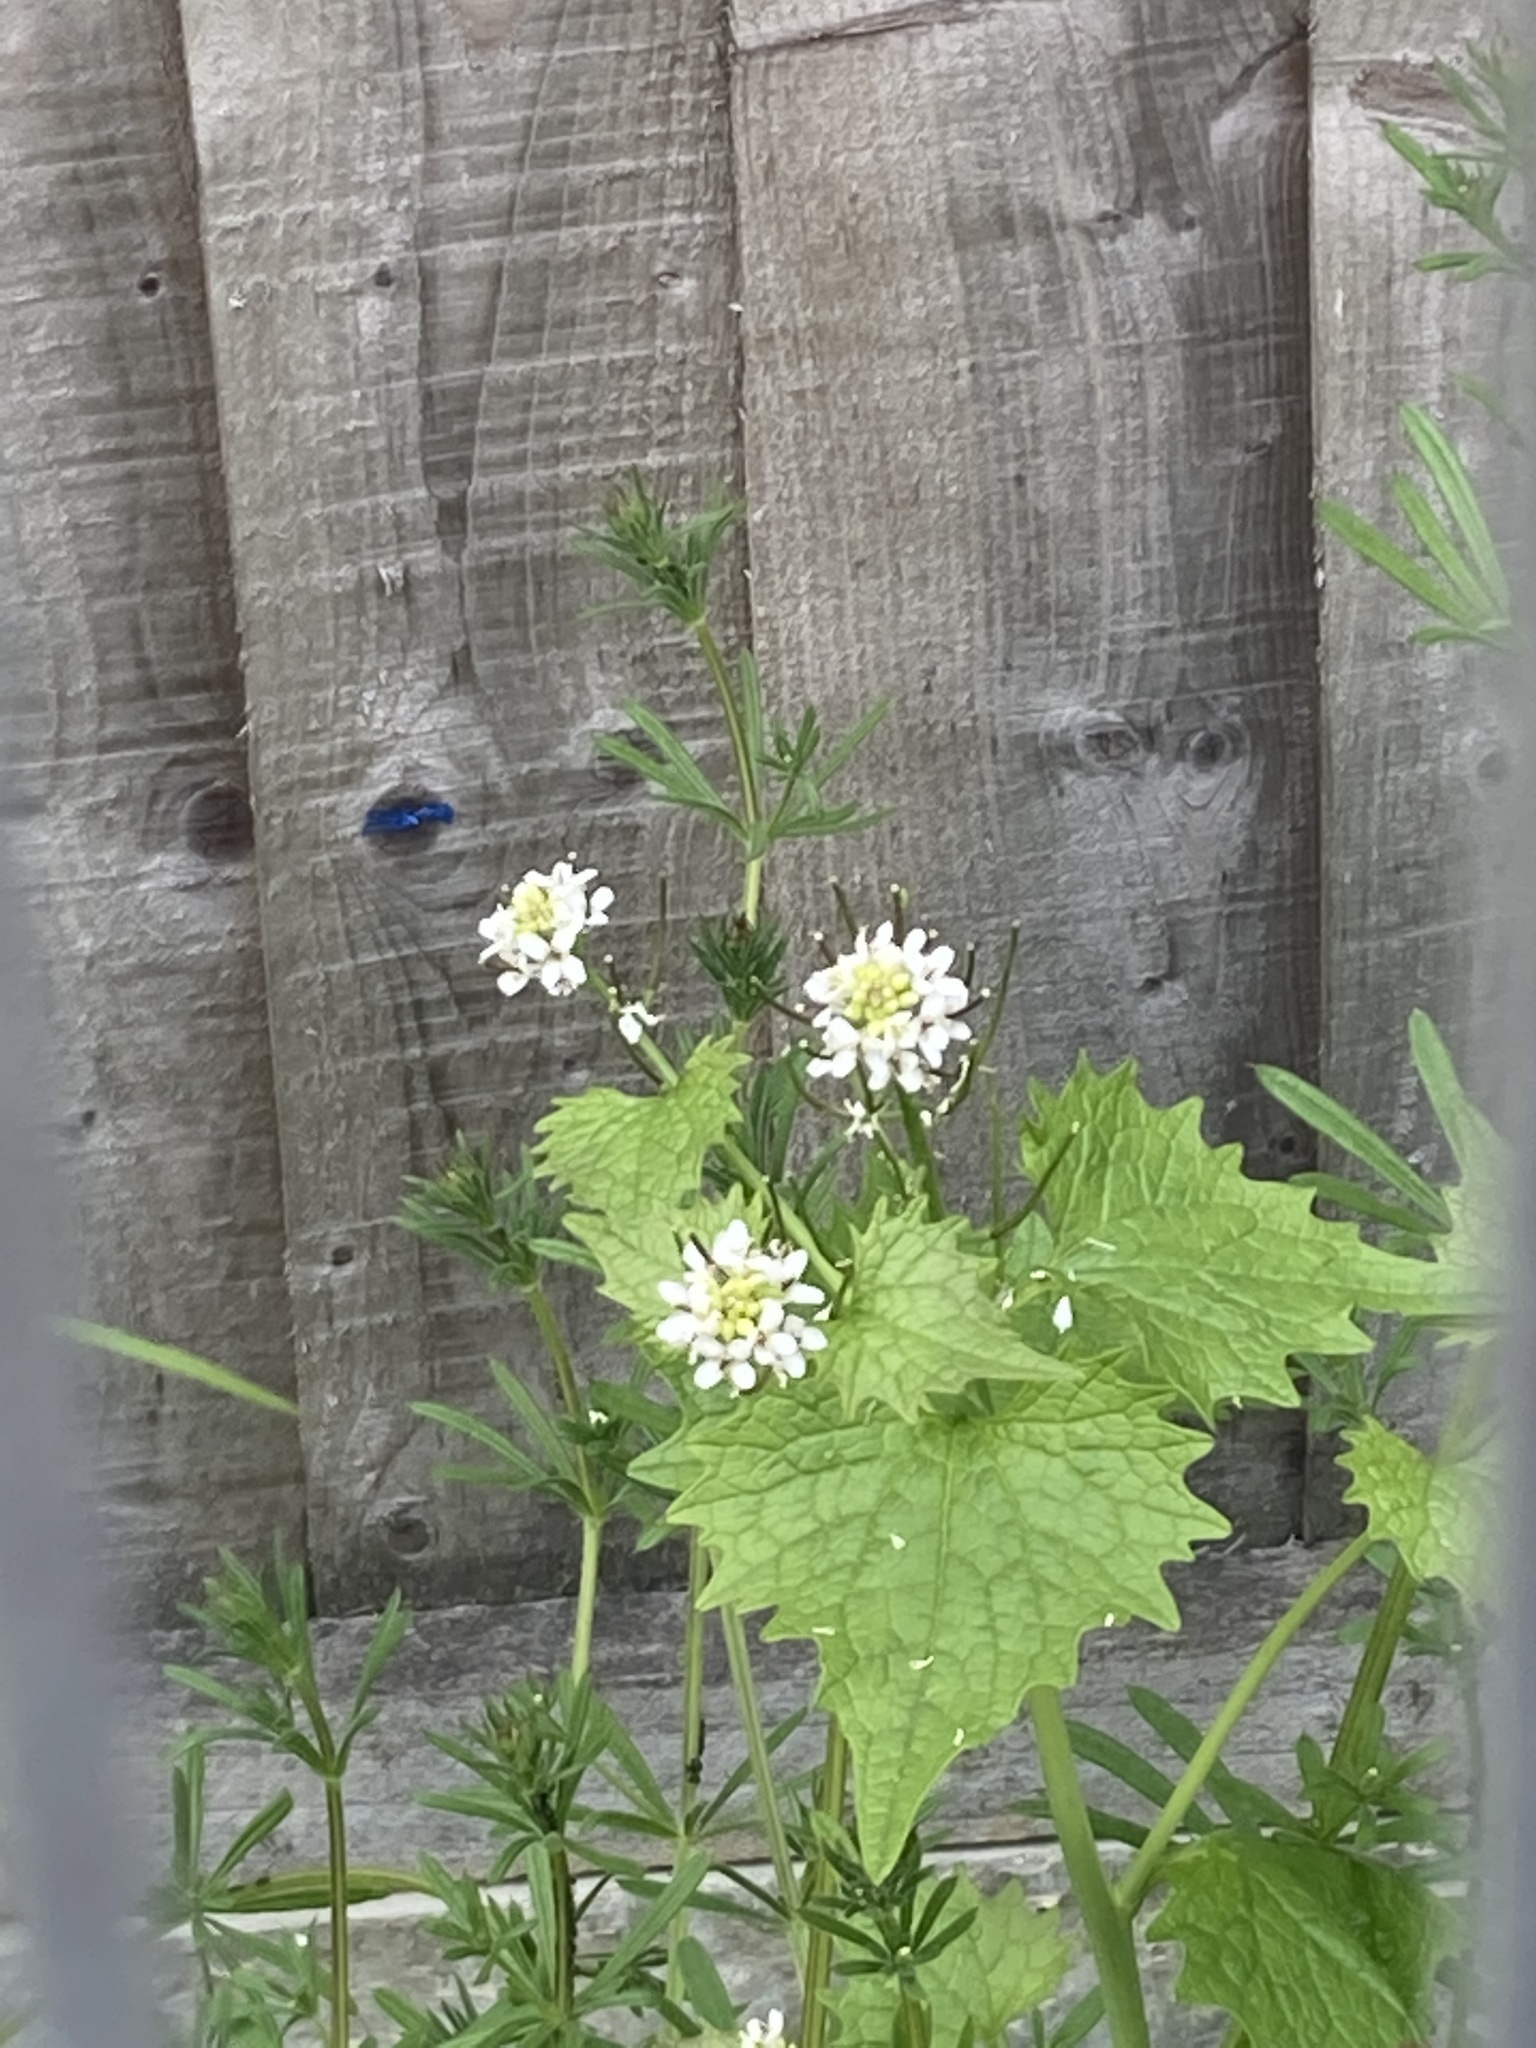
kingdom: Plantae
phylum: Tracheophyta
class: Magnoliopsida
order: Brassicales
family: Brassicaceae
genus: Alliaria
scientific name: Alliaria petiolata
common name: Garlic mustard
